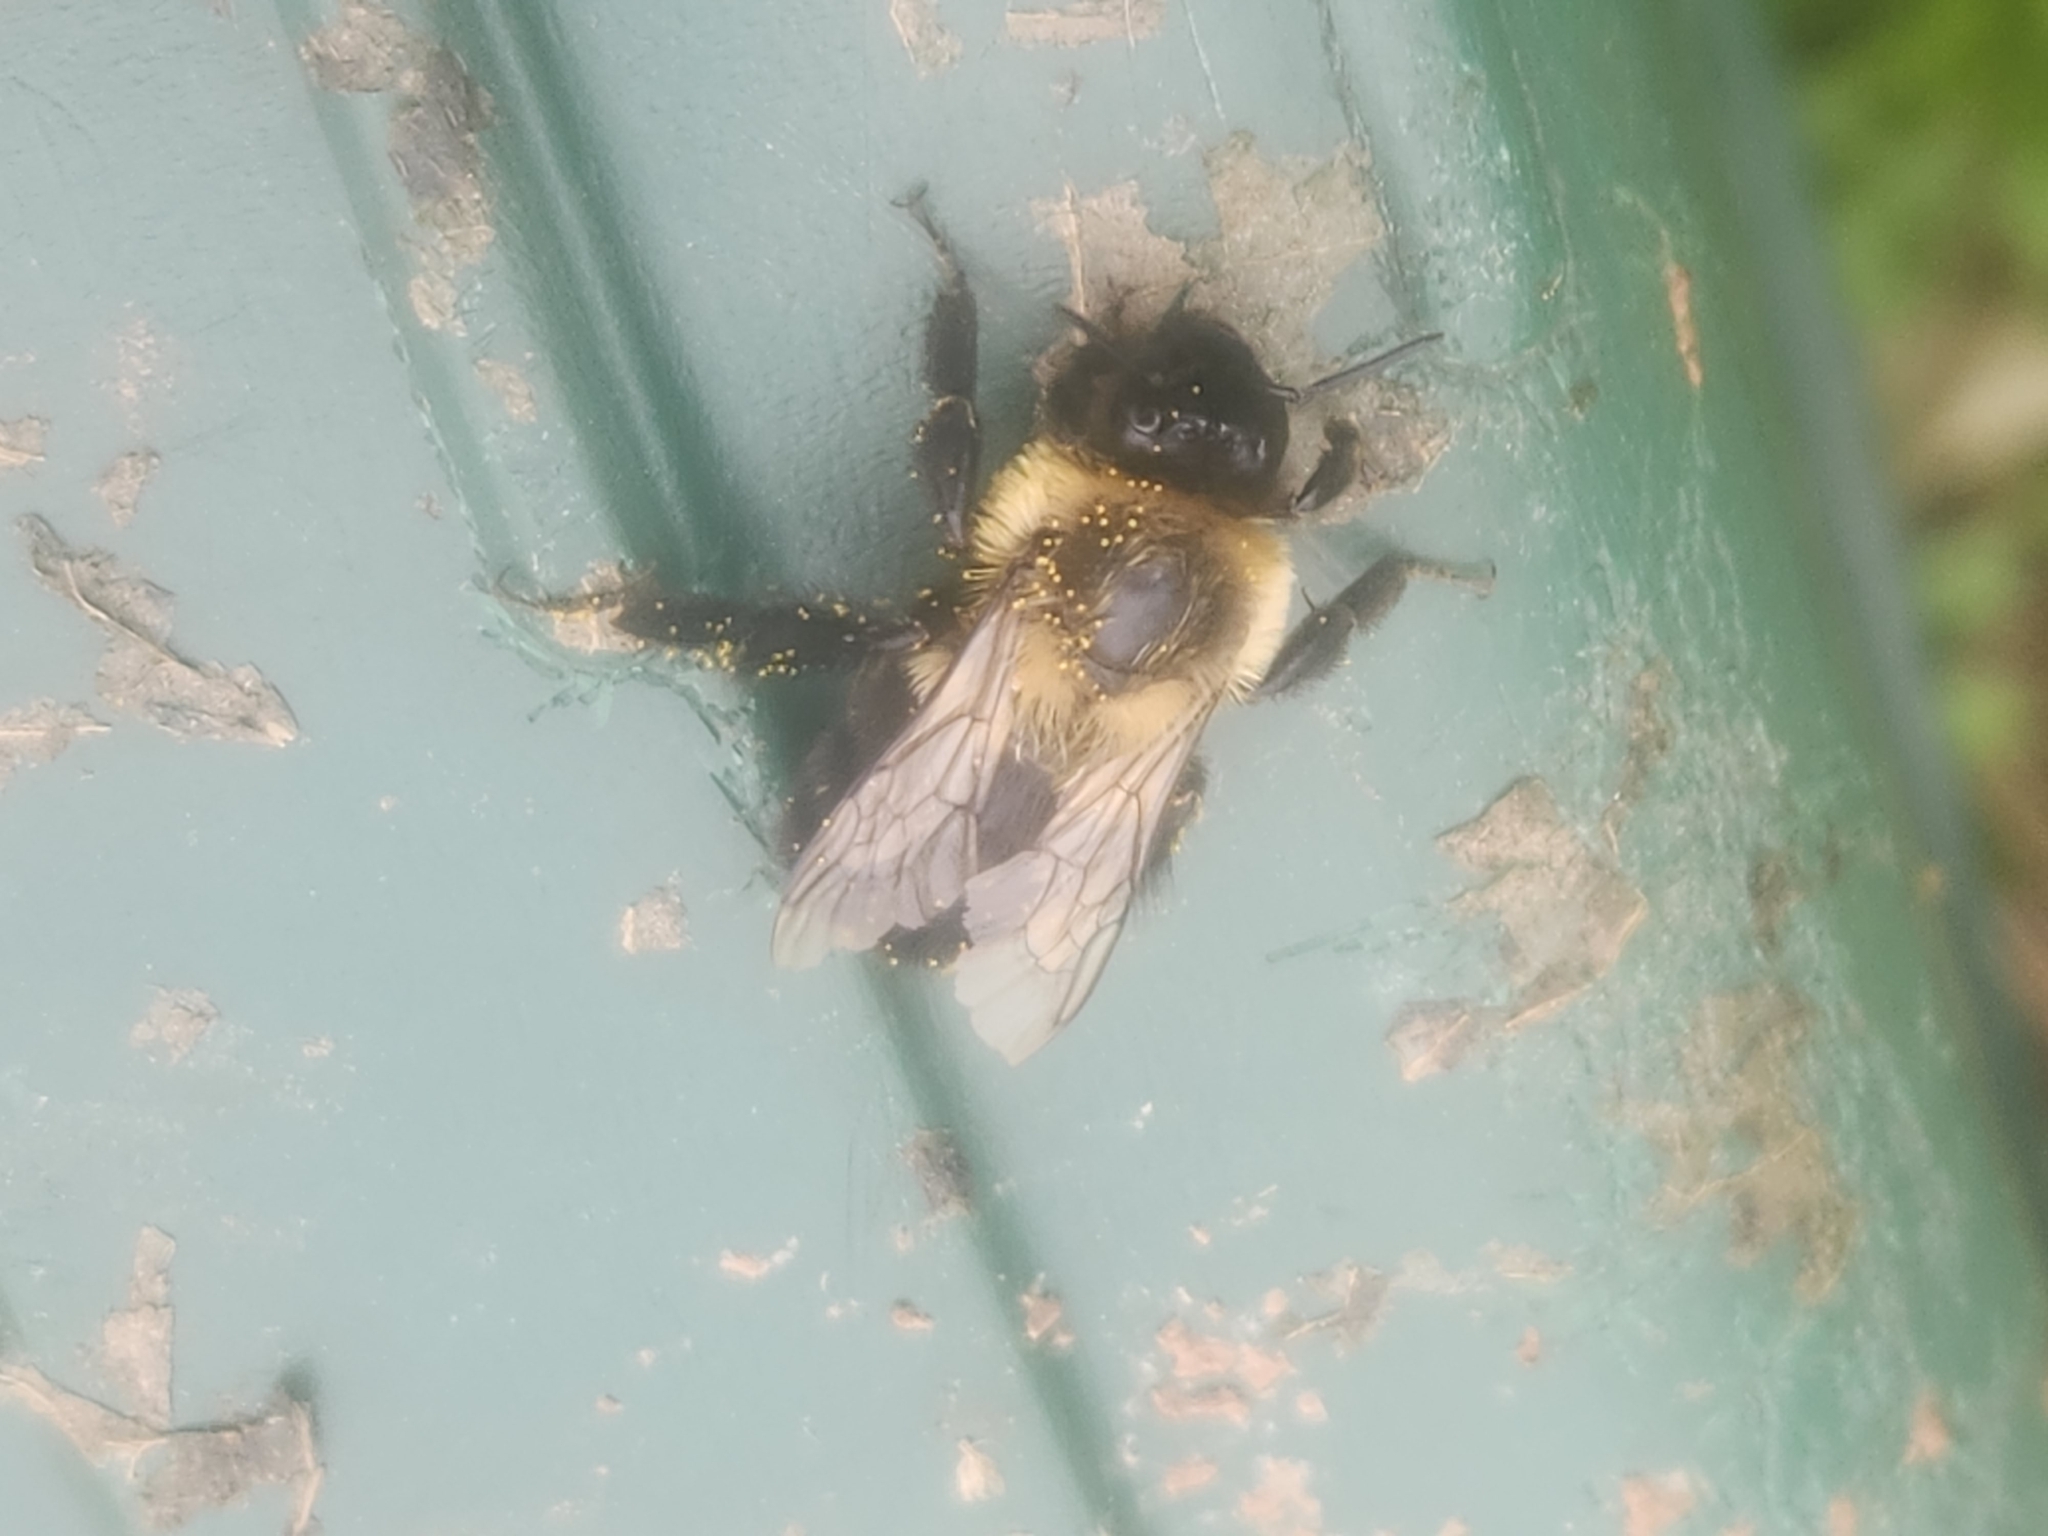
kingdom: Animalia
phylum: Arthropoda
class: Insecta
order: Hymenoptera
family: Apidae
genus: Bombus
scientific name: Bombus impatiens
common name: Common eastern bumble bee
